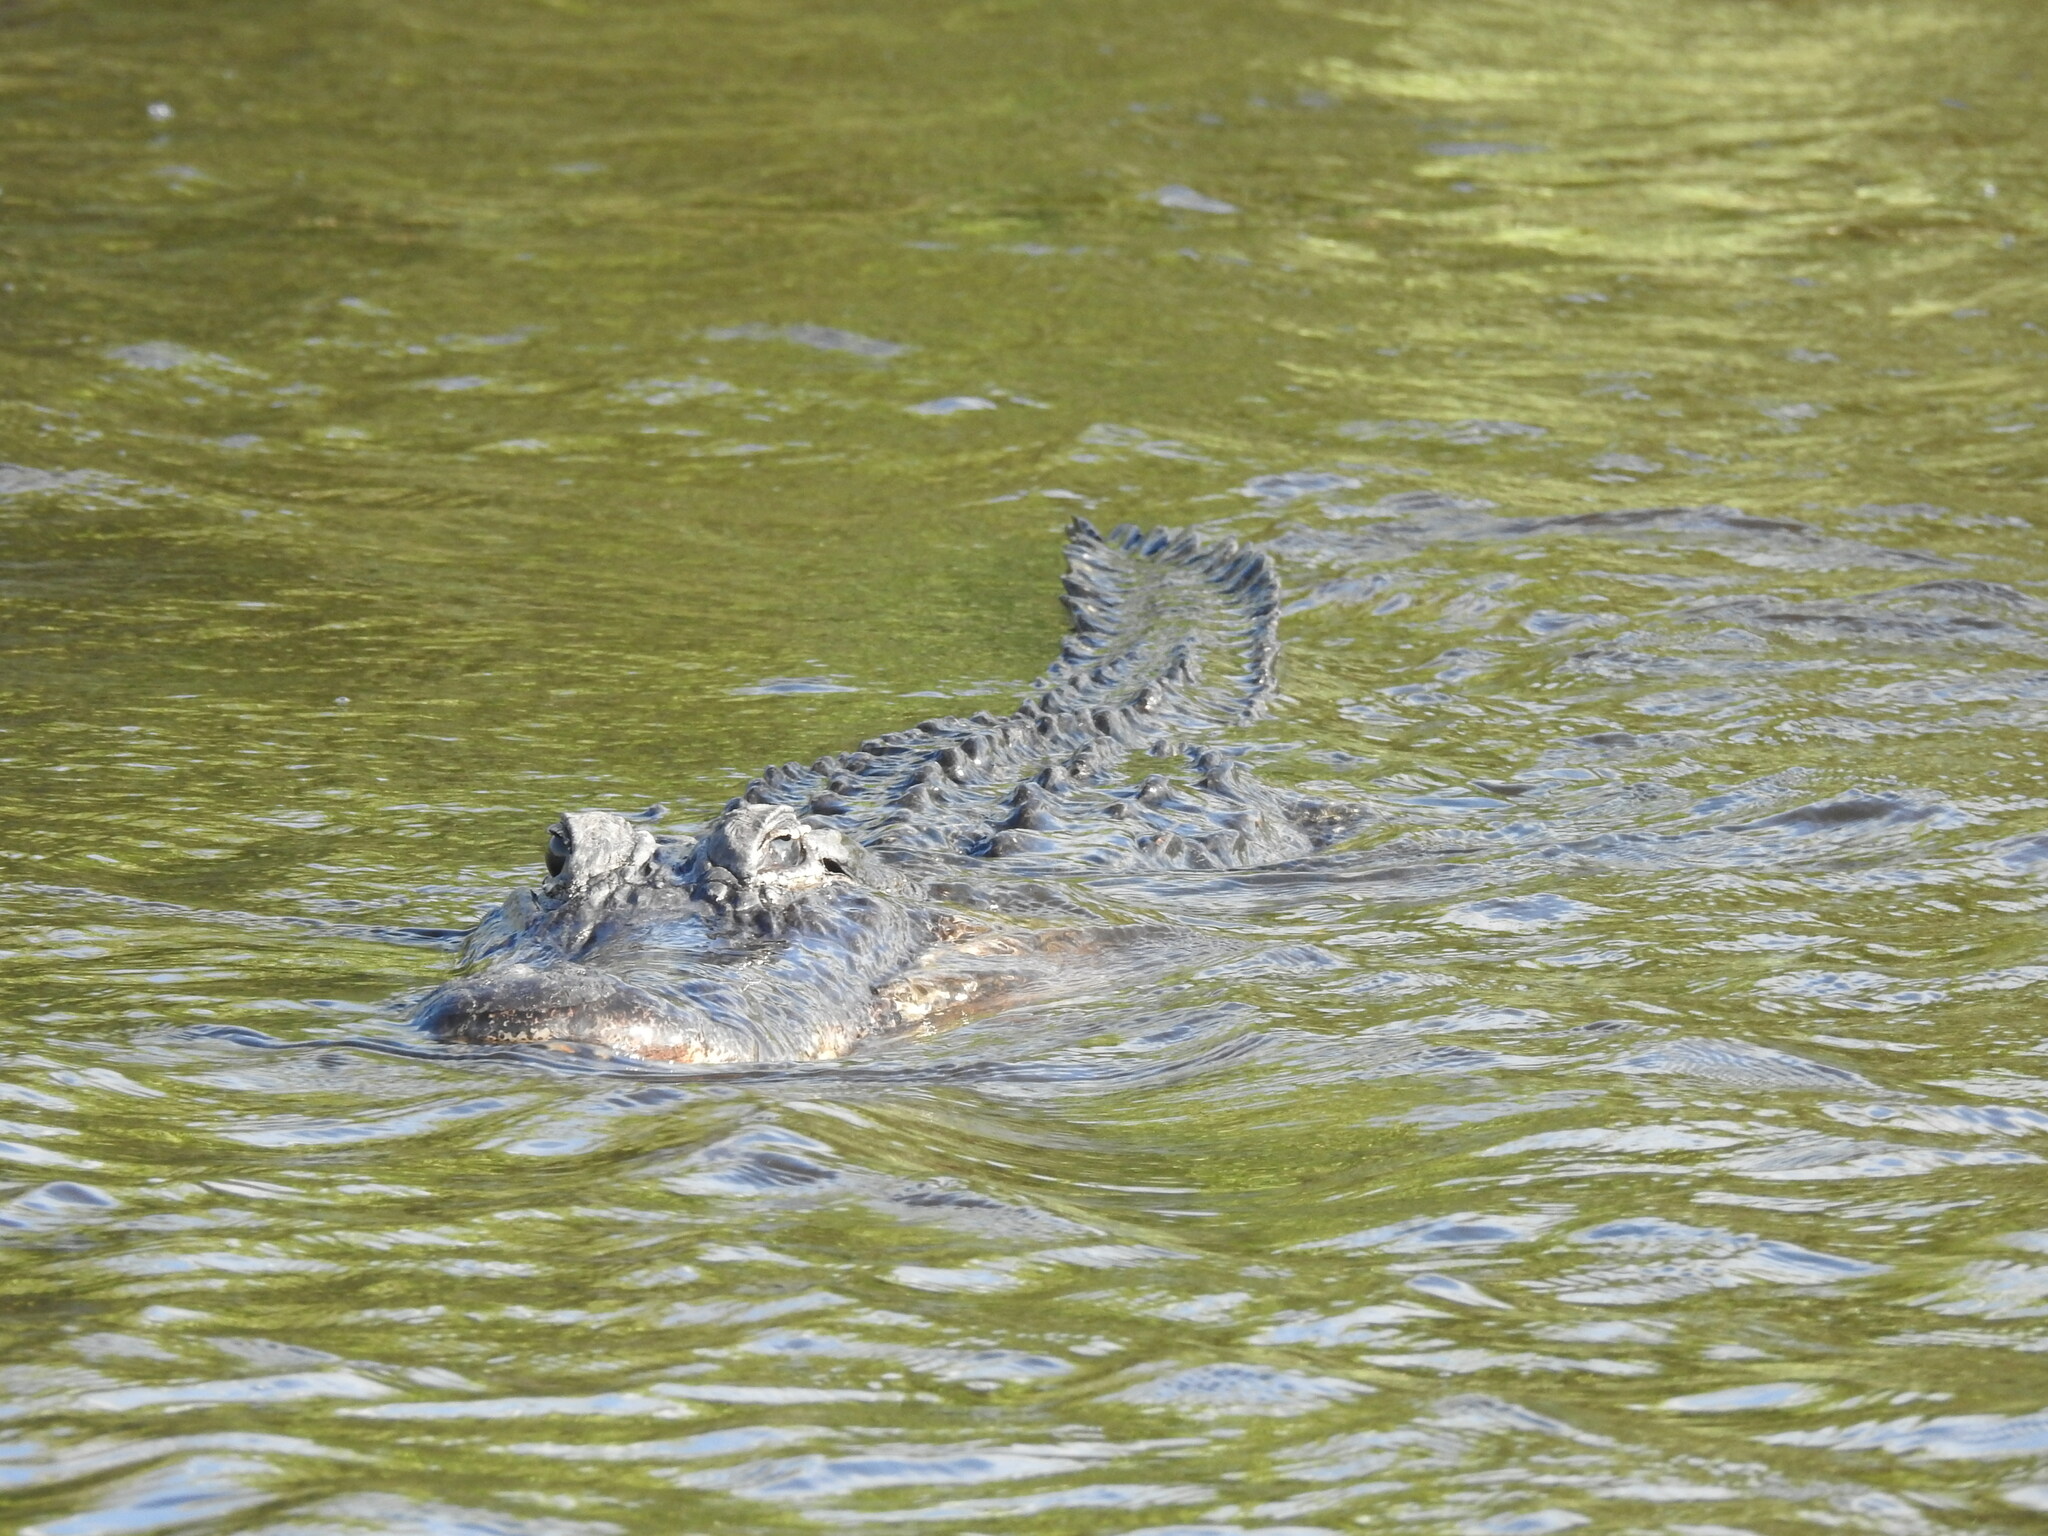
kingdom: Animalia
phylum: Chordata
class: Crocodylia
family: Alligatoridae
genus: Alligator
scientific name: Alligator mississippiensis
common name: American alligator
